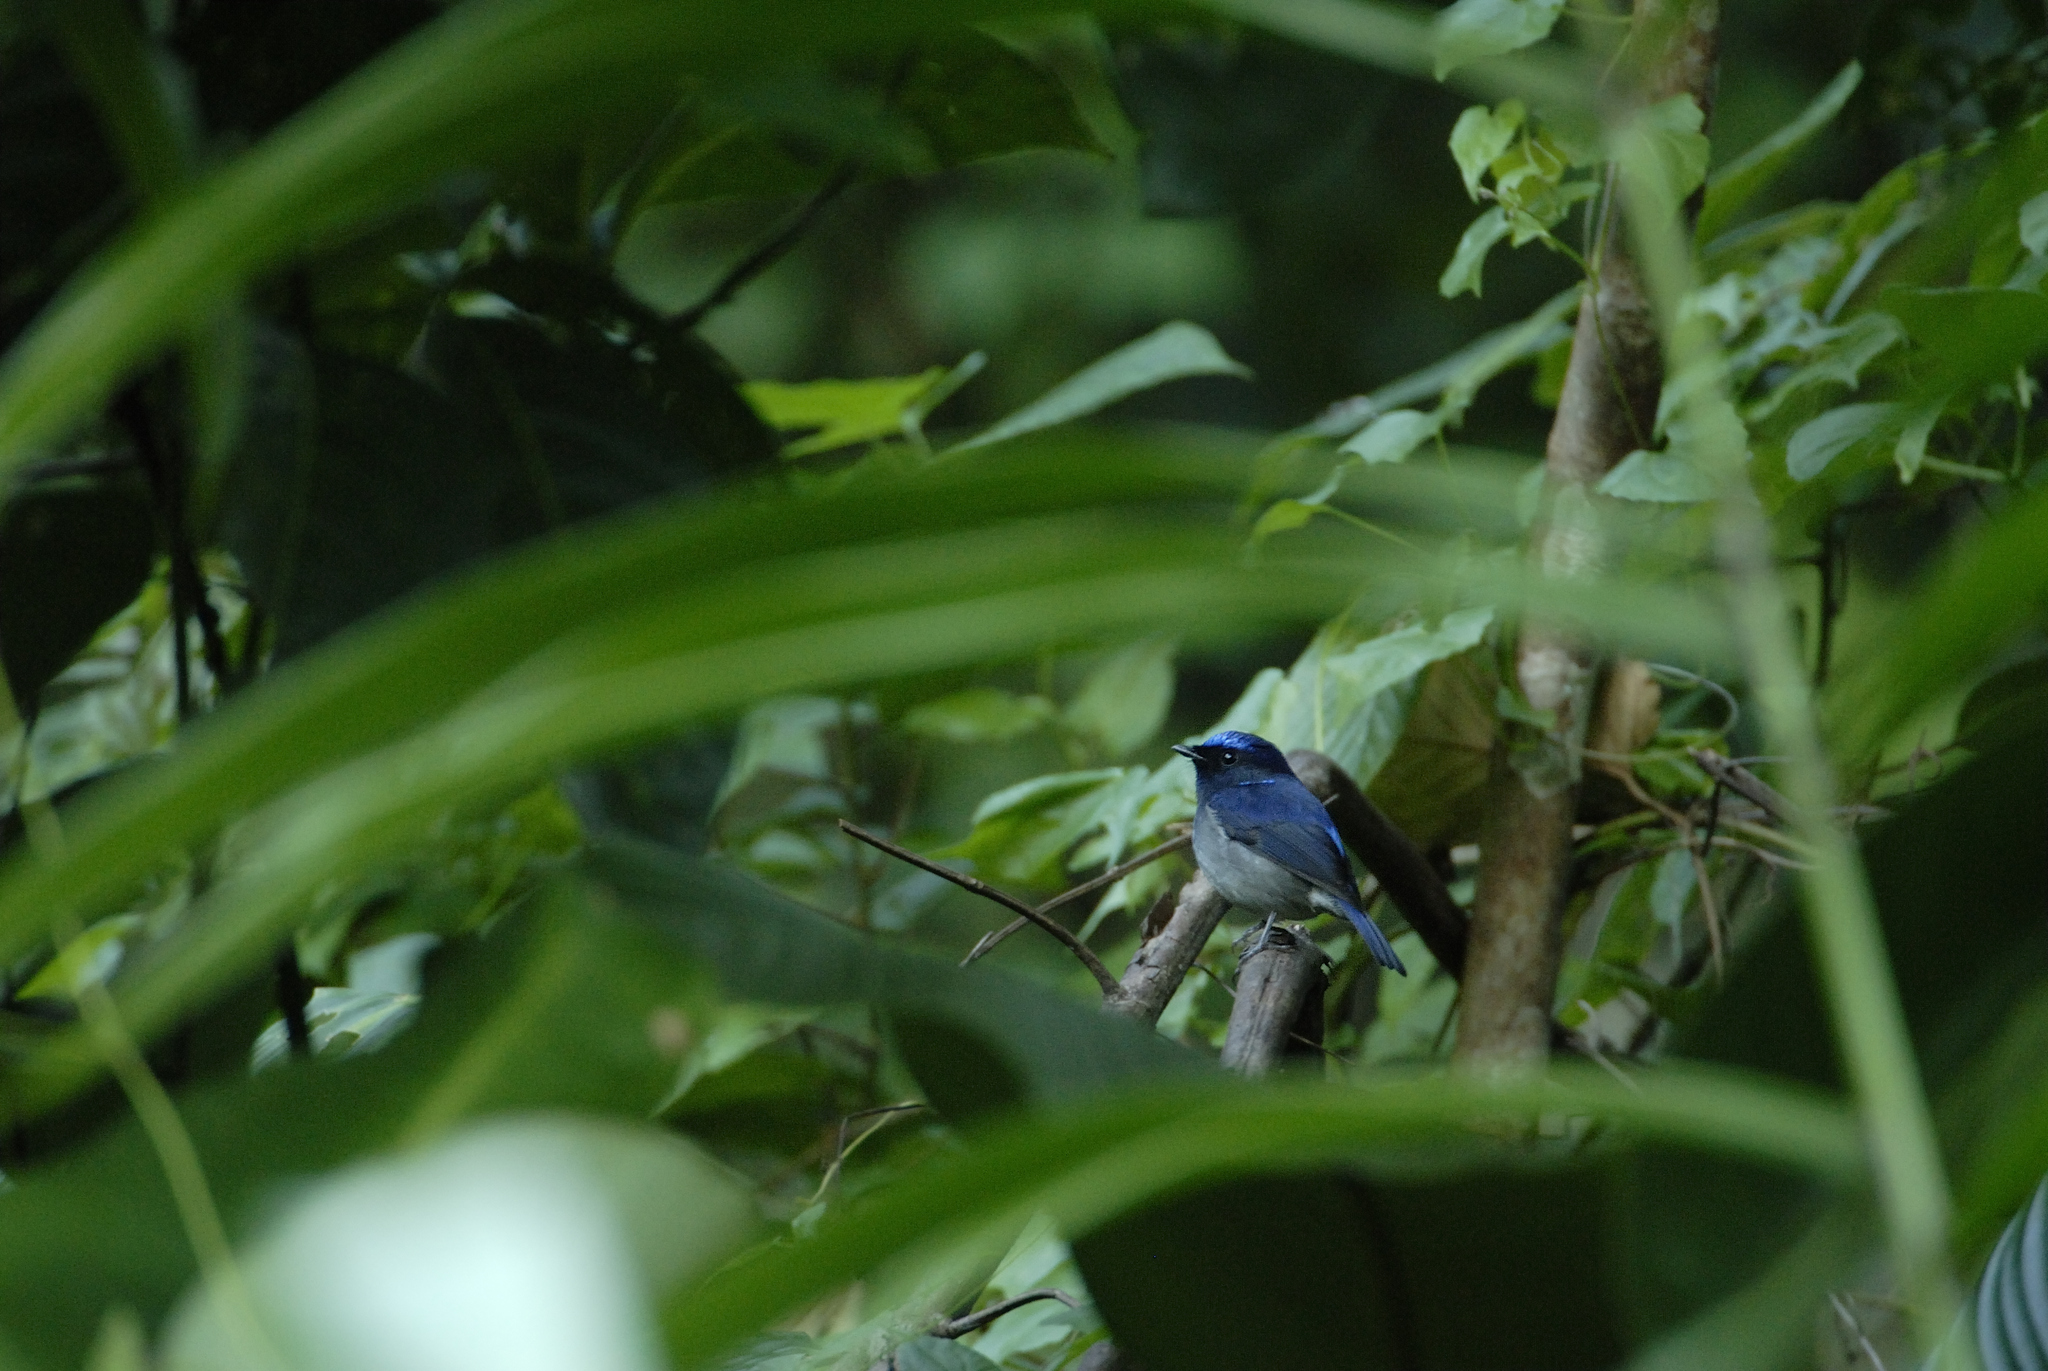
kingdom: Animalia
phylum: Chordata
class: Aves
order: Passeriformes
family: Muscicapidae
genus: Niltava
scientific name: Niltava macgrigoriae
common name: Small niltava
